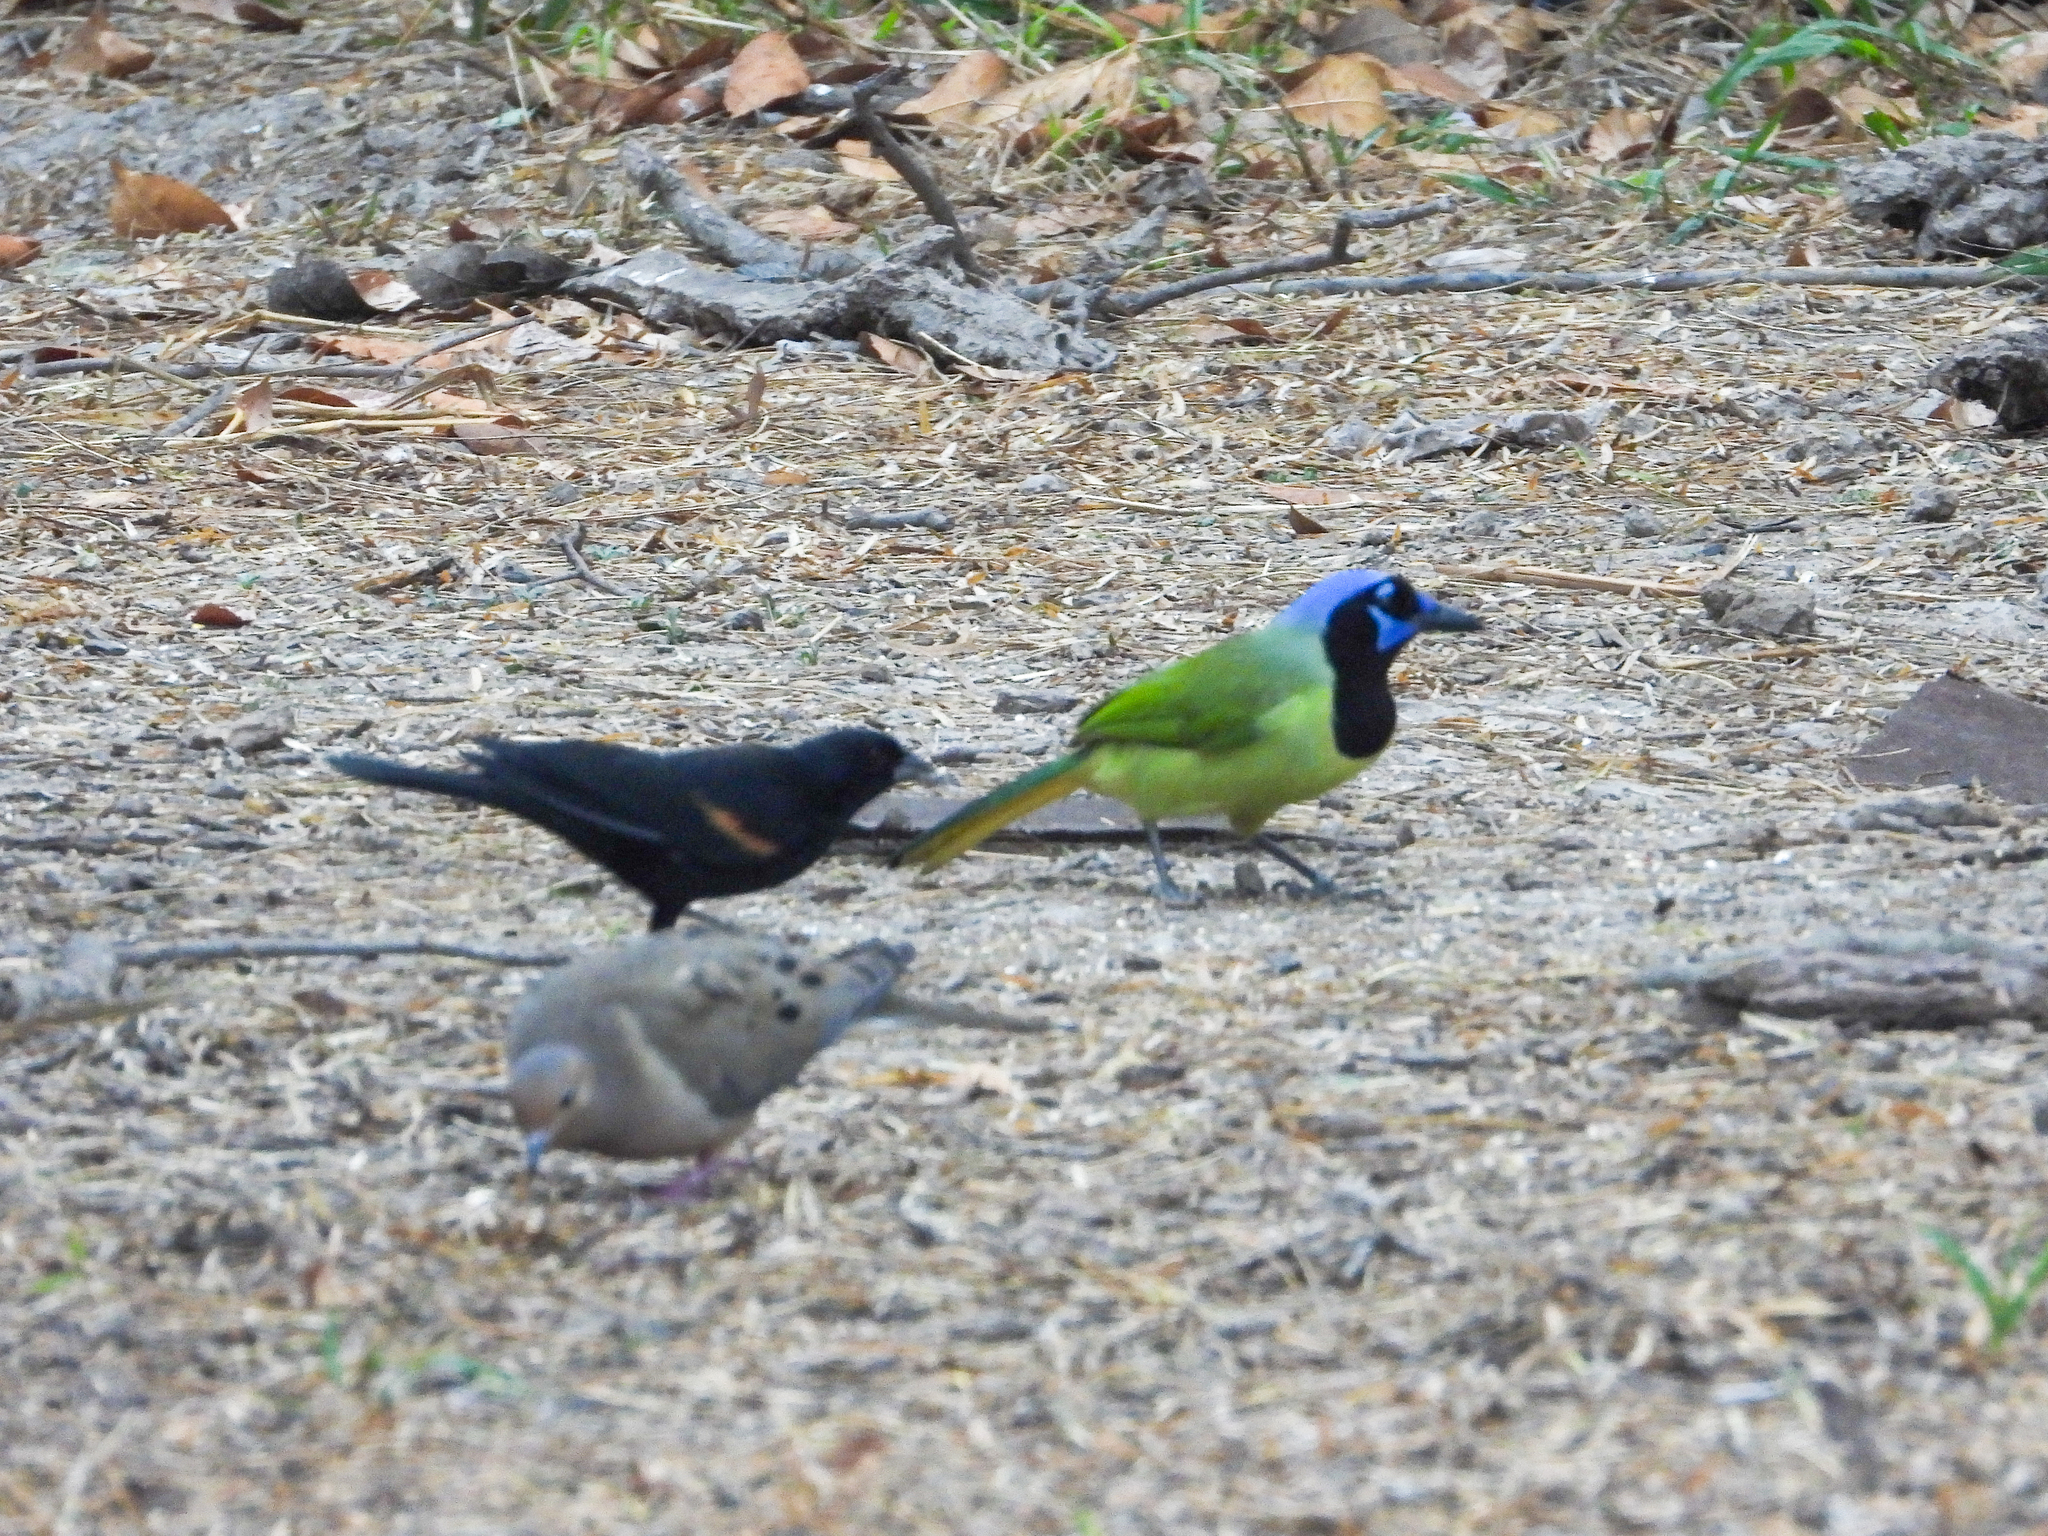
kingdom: Animalia
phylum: Chordata
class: Aves
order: Passeriformes
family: Corvidae
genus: Cyanocorax
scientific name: Cyanocorax yncas
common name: Green jay
